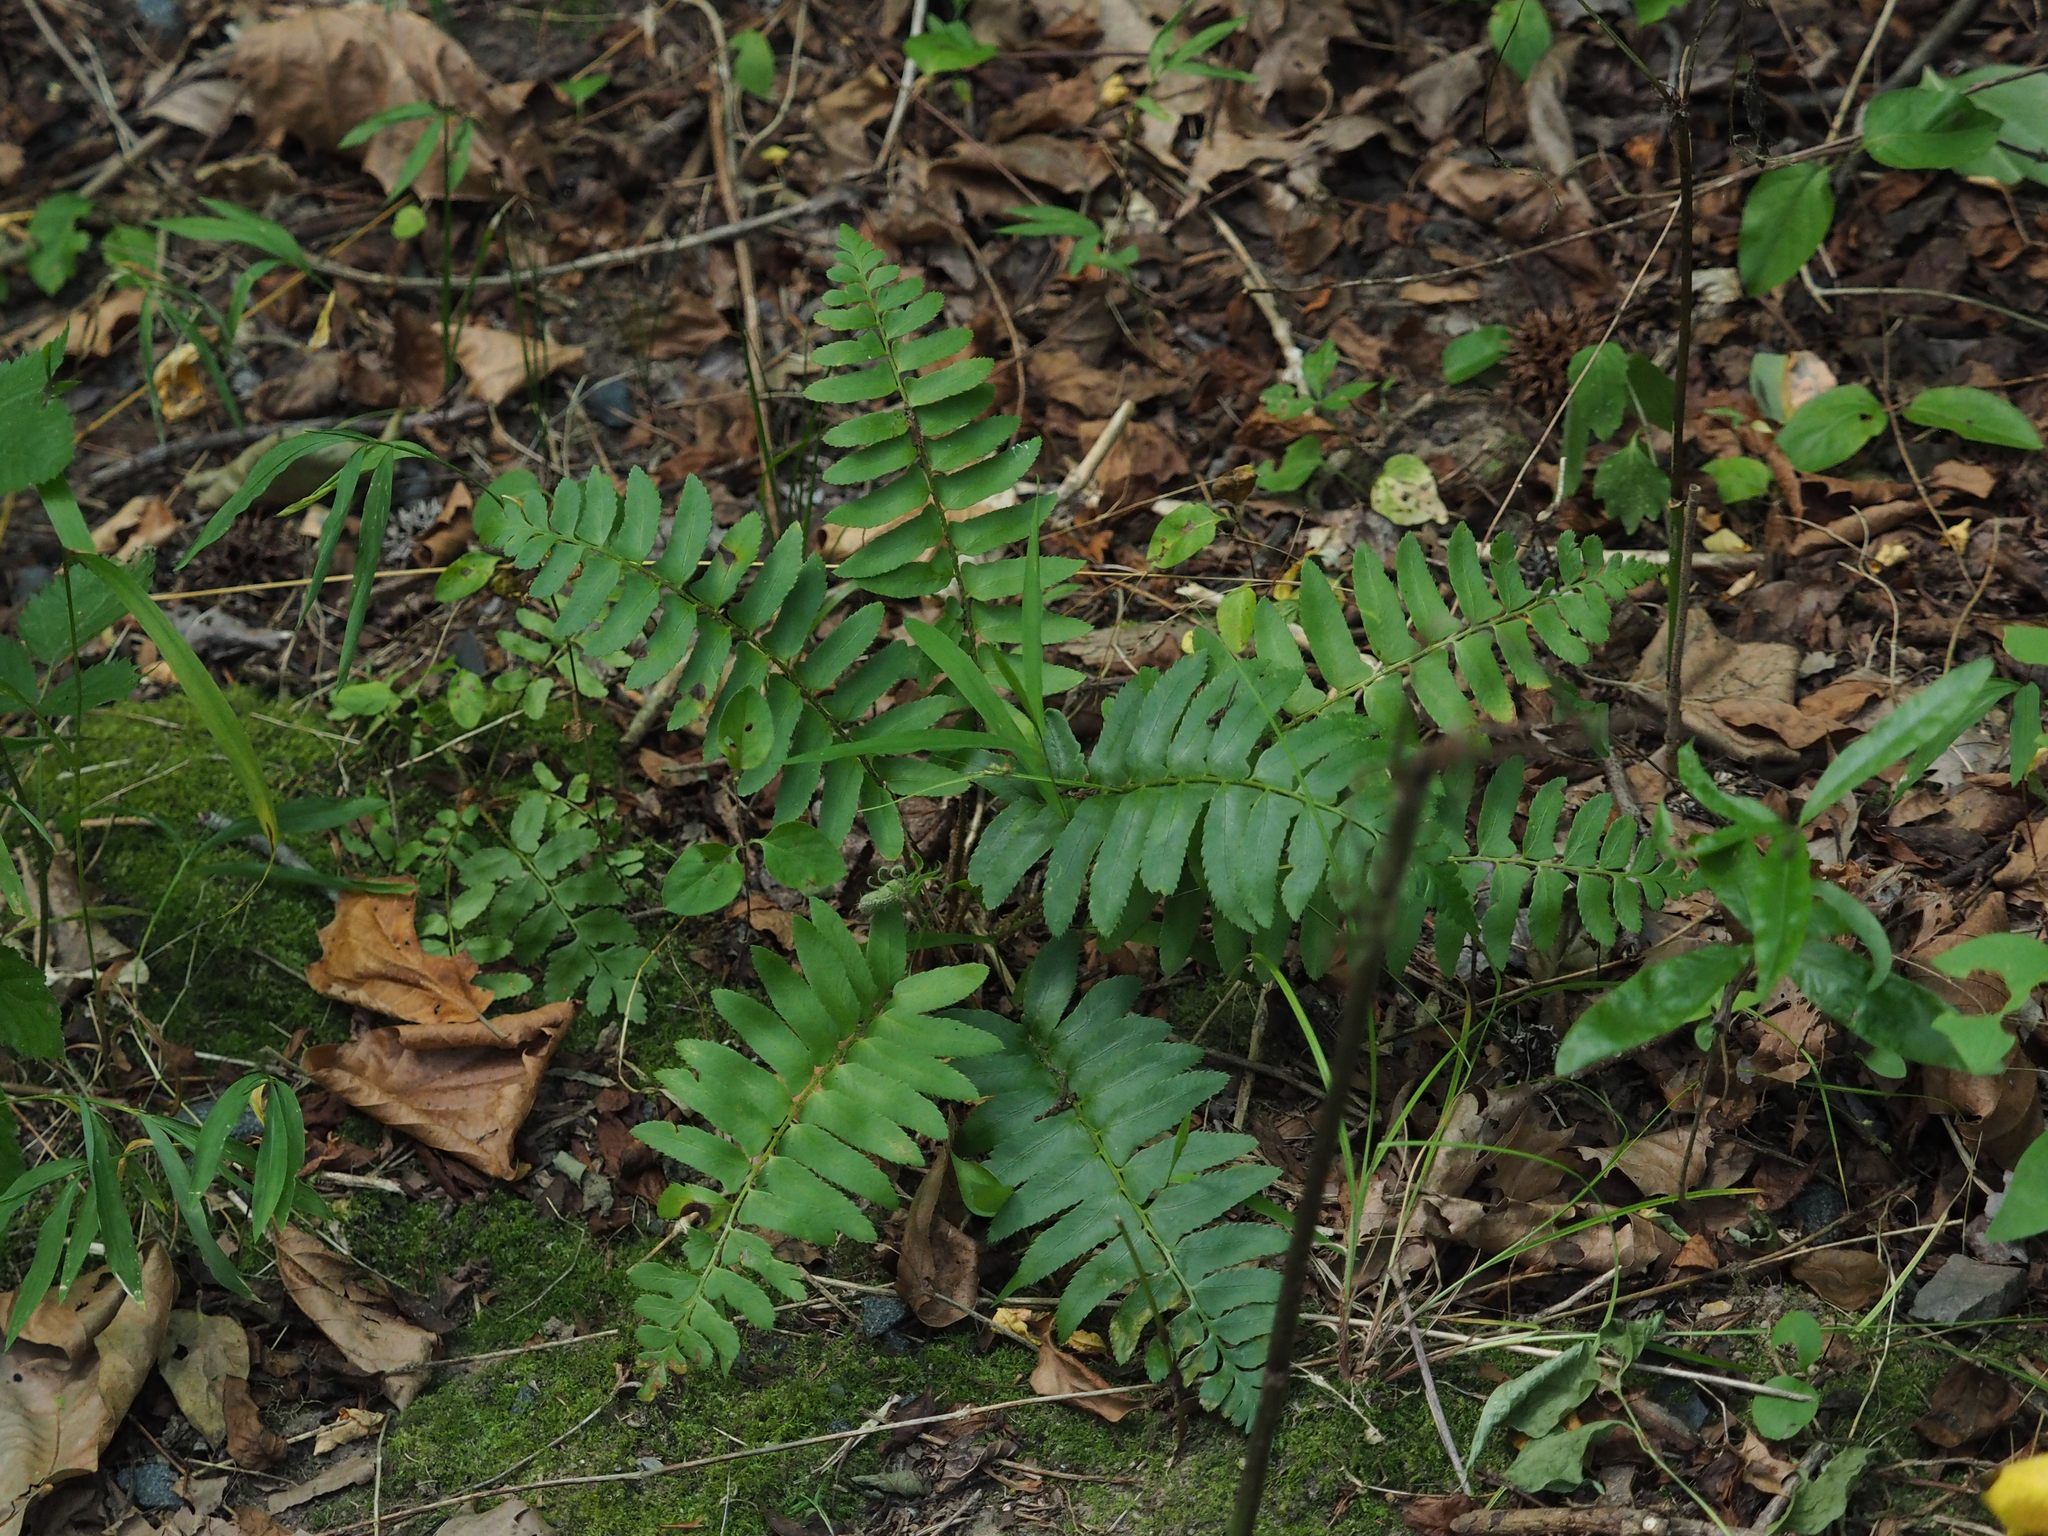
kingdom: Plantae
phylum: Tracheophyta
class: Polypodiopsida
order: Polypodiales
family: Dryopteridaceae
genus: Polystichum
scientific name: Polystichum acrostichoides
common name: Christmas fern
